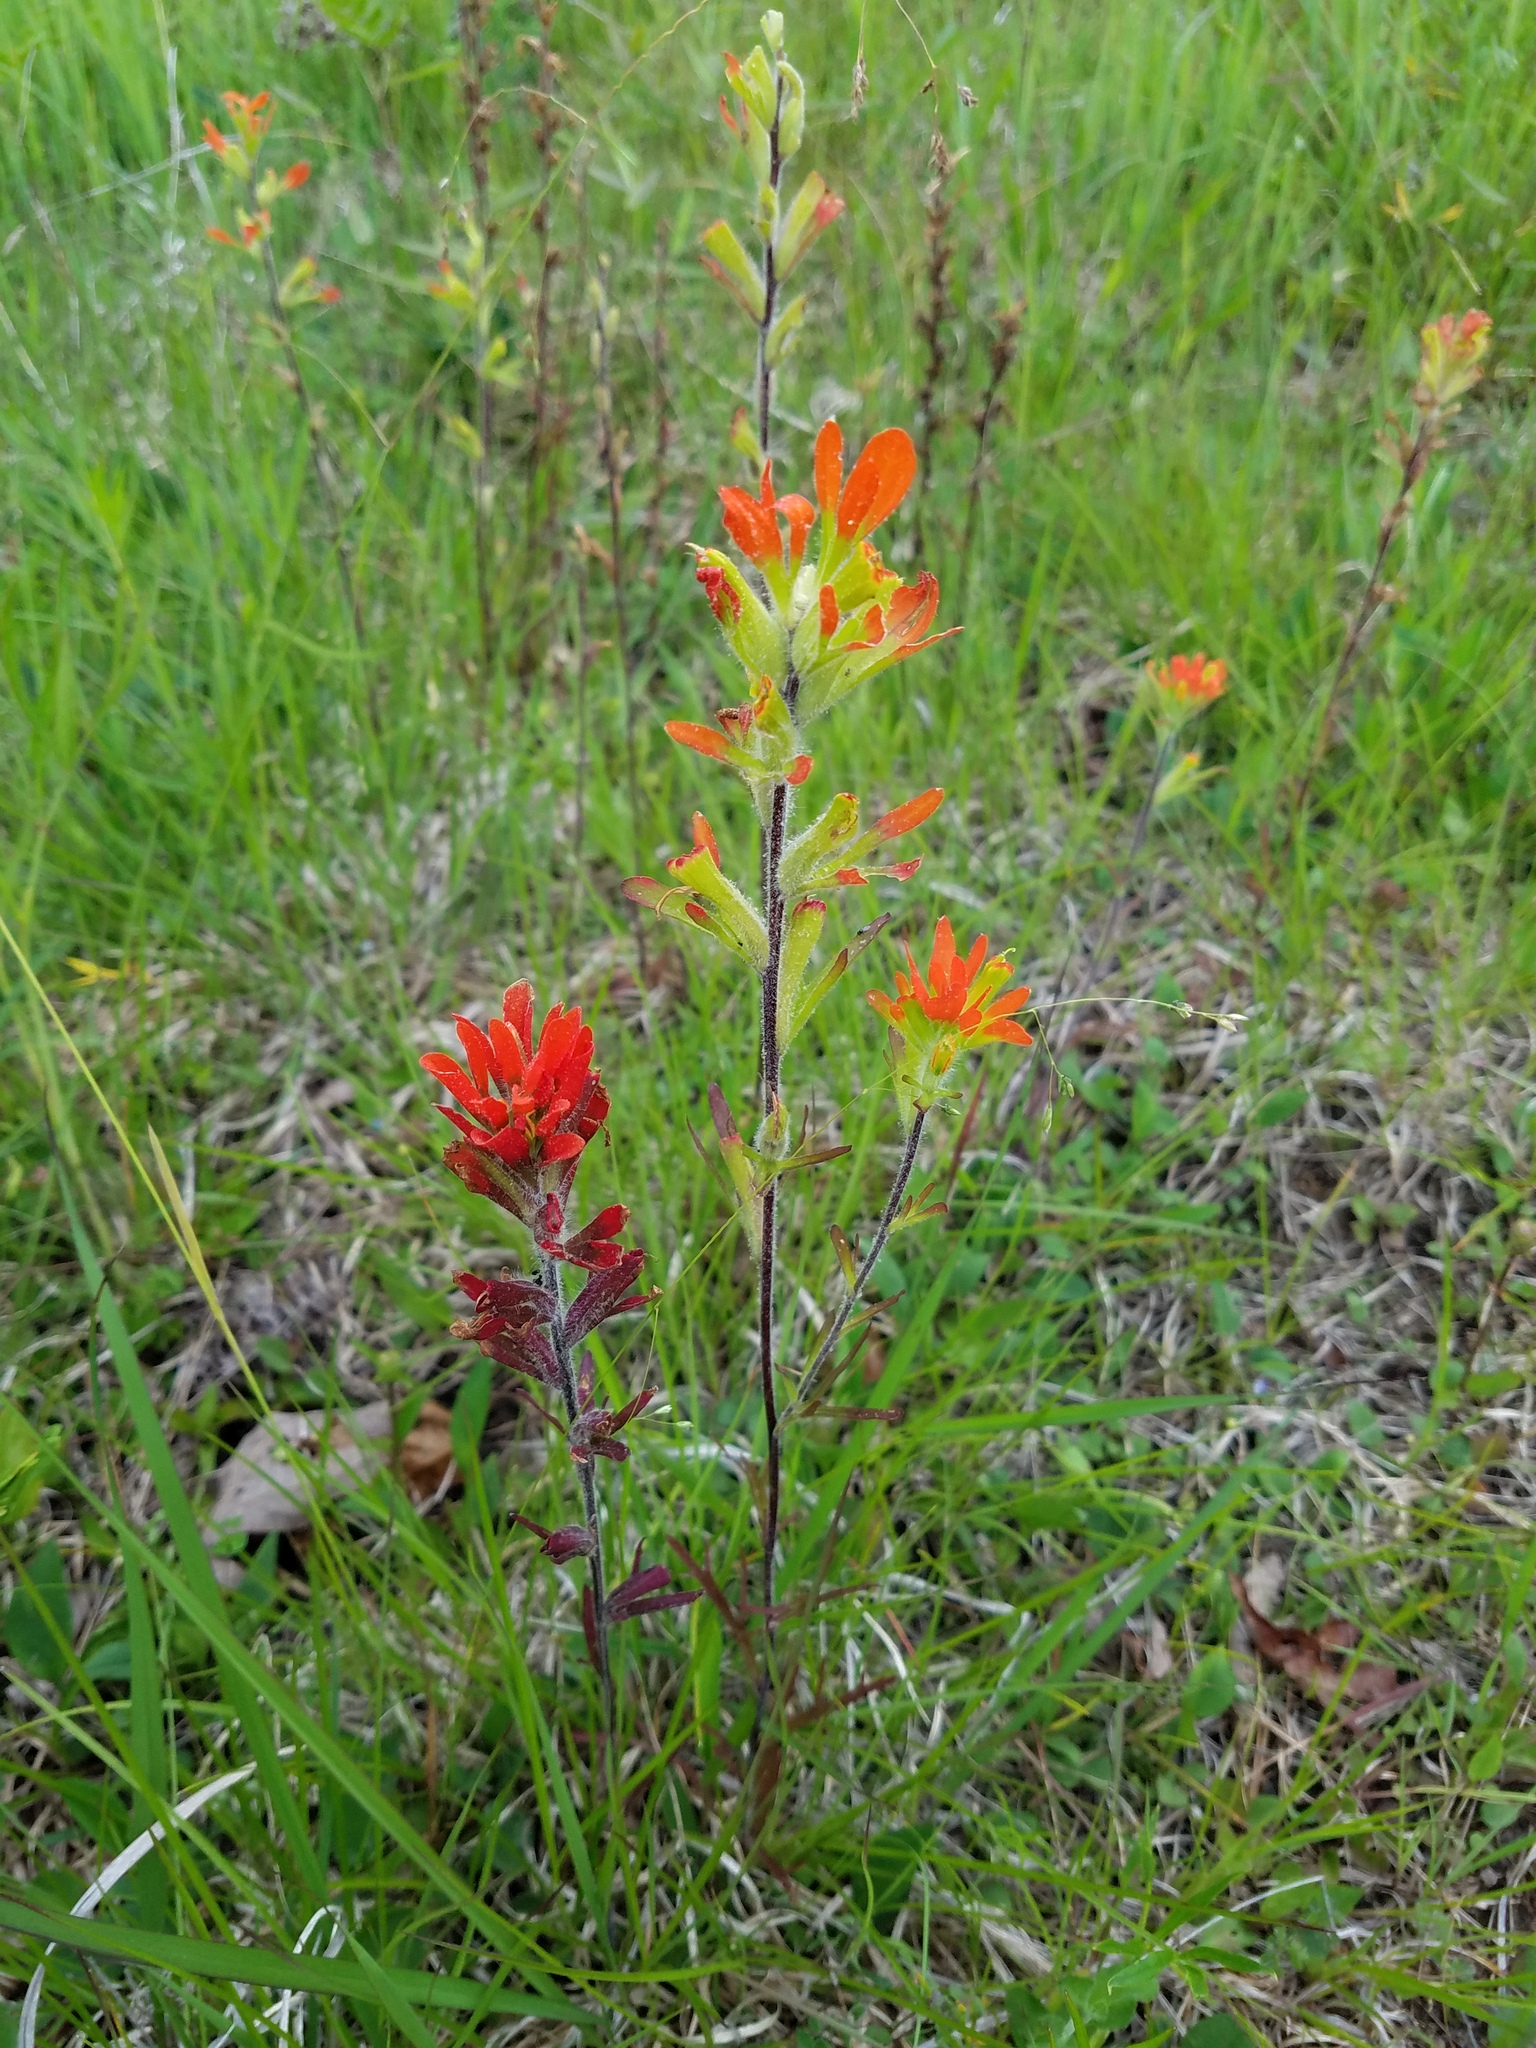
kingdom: Plantae
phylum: Tracheophyta
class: Magnoliopsida
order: Lamiales
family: Orobanchaceae
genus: Castilleja
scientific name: Castilleja coccinea
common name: Scarlet paintbrush
